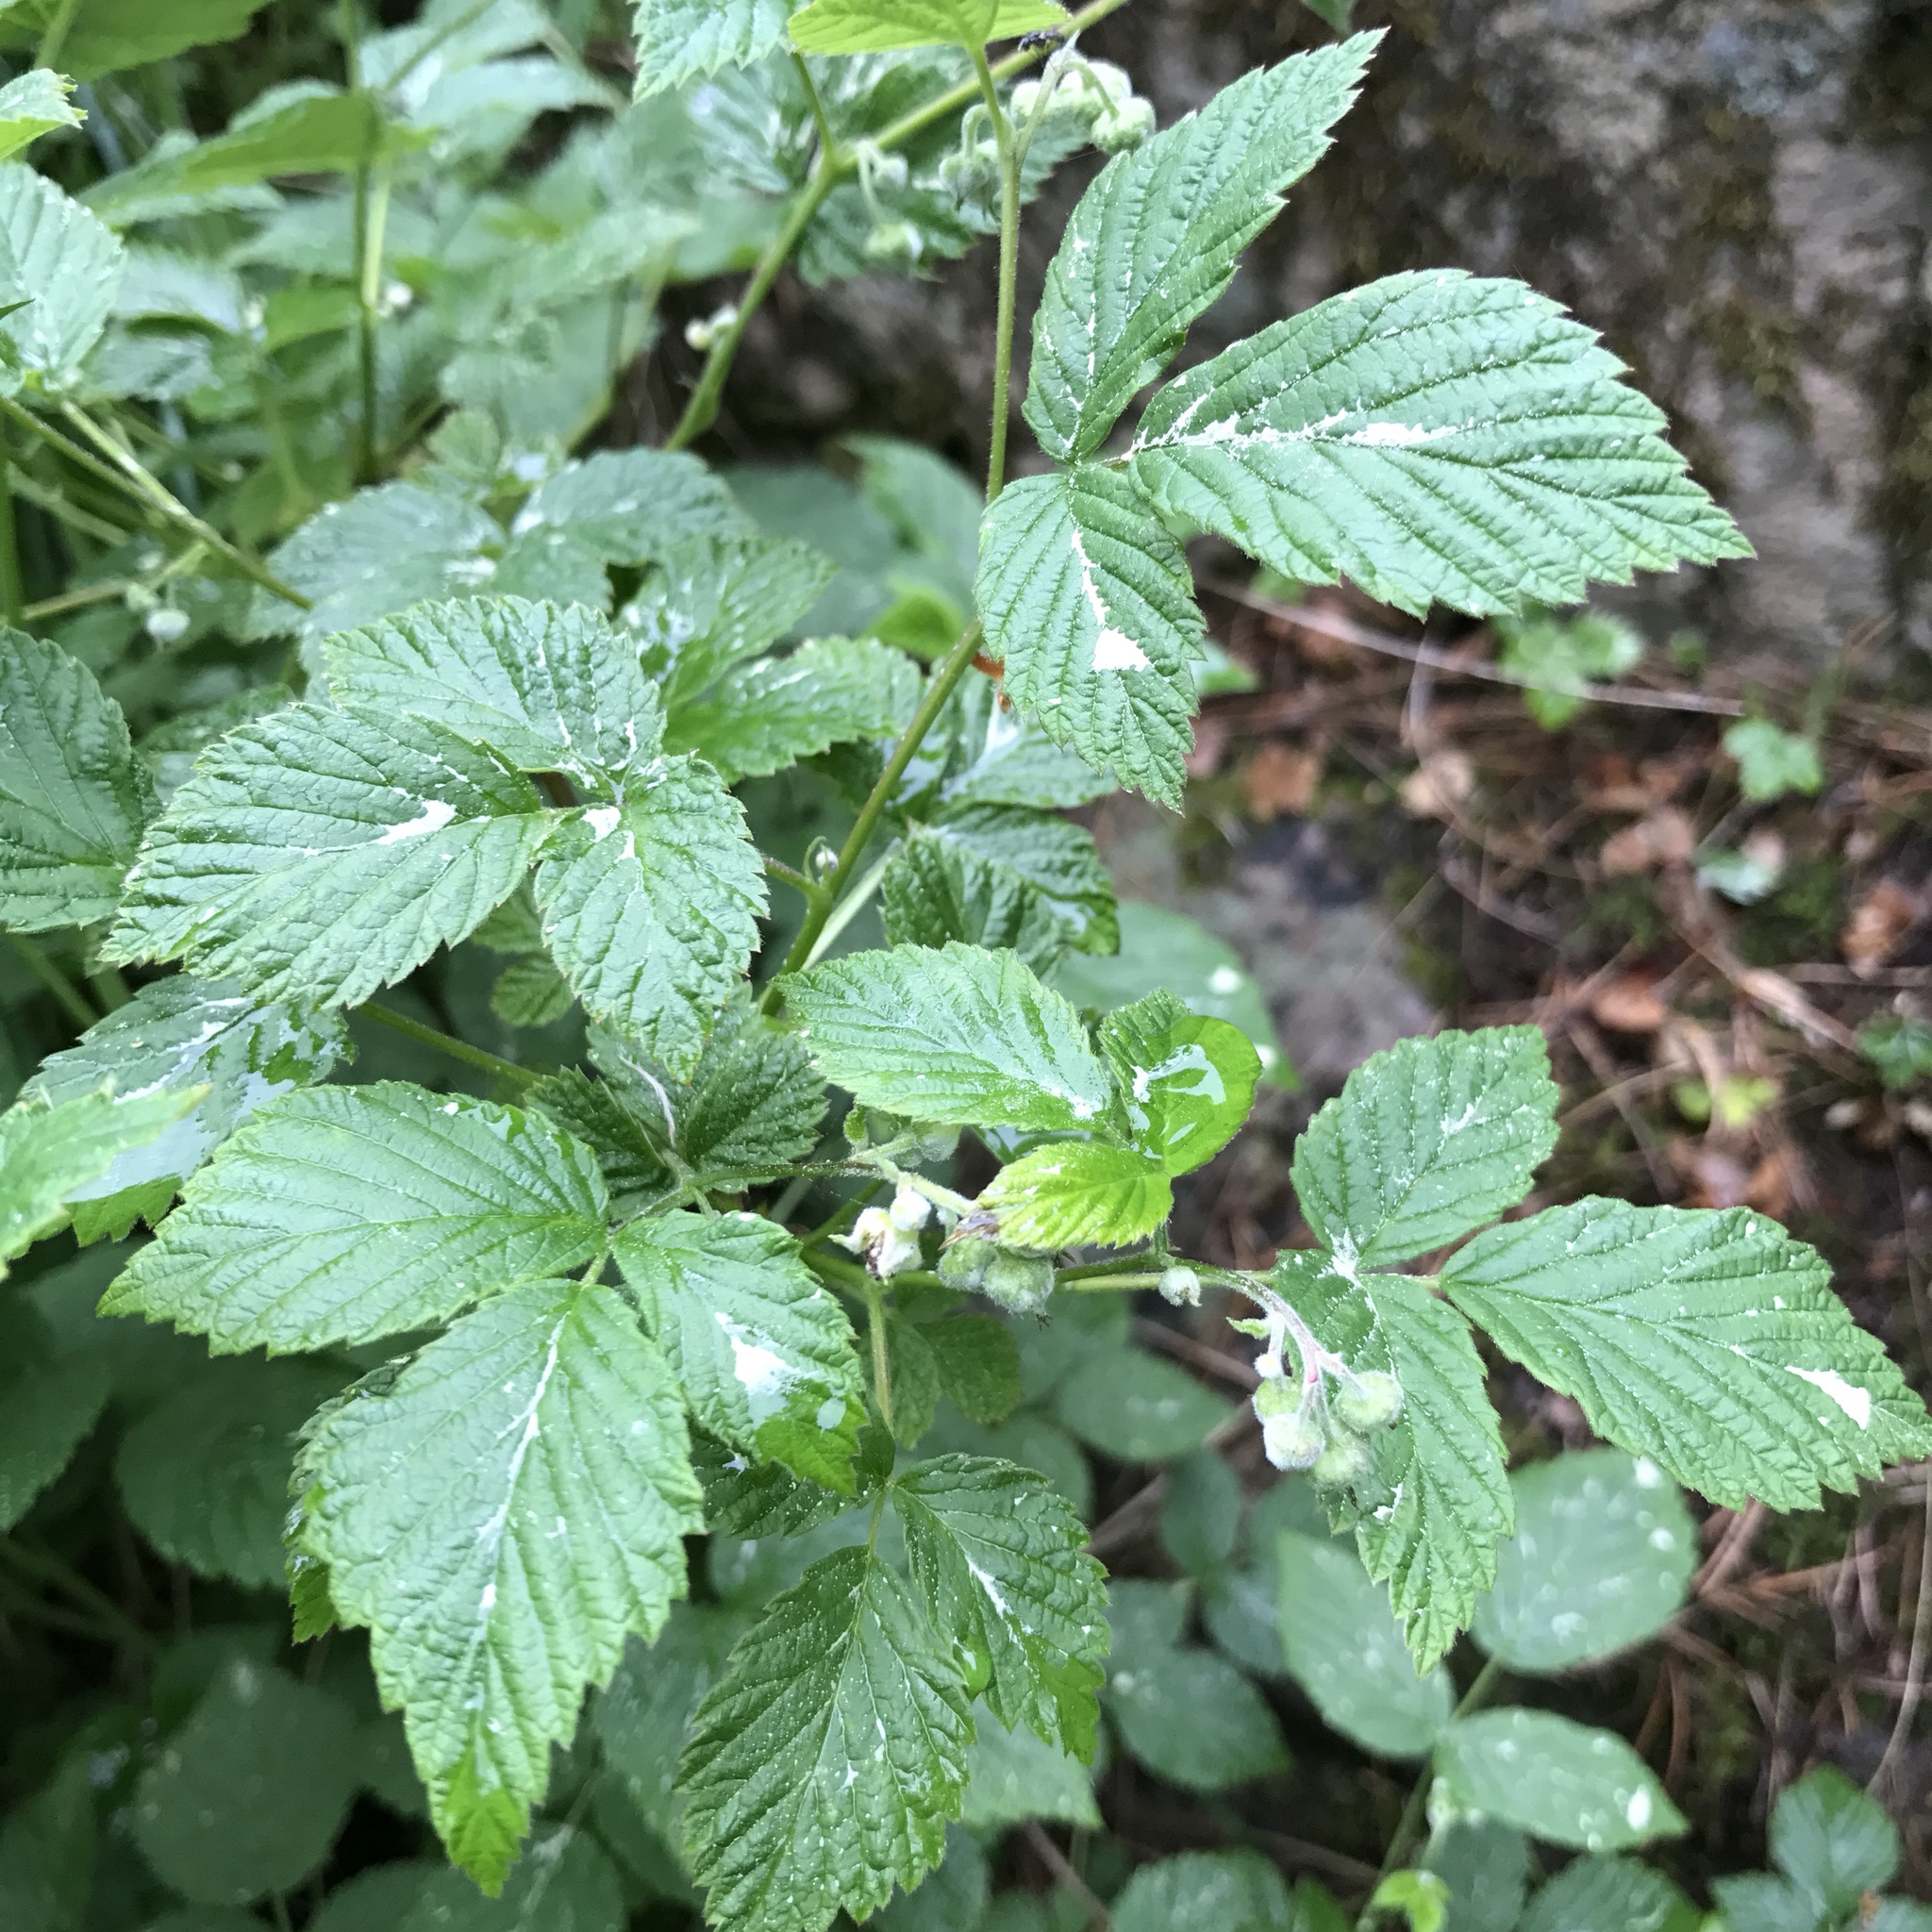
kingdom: Plantae
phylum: Tracheophyta
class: Magnoliopsida
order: Rosales
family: Rosaceae
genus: Rubus
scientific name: Rubus idaeus
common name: Raspberry
